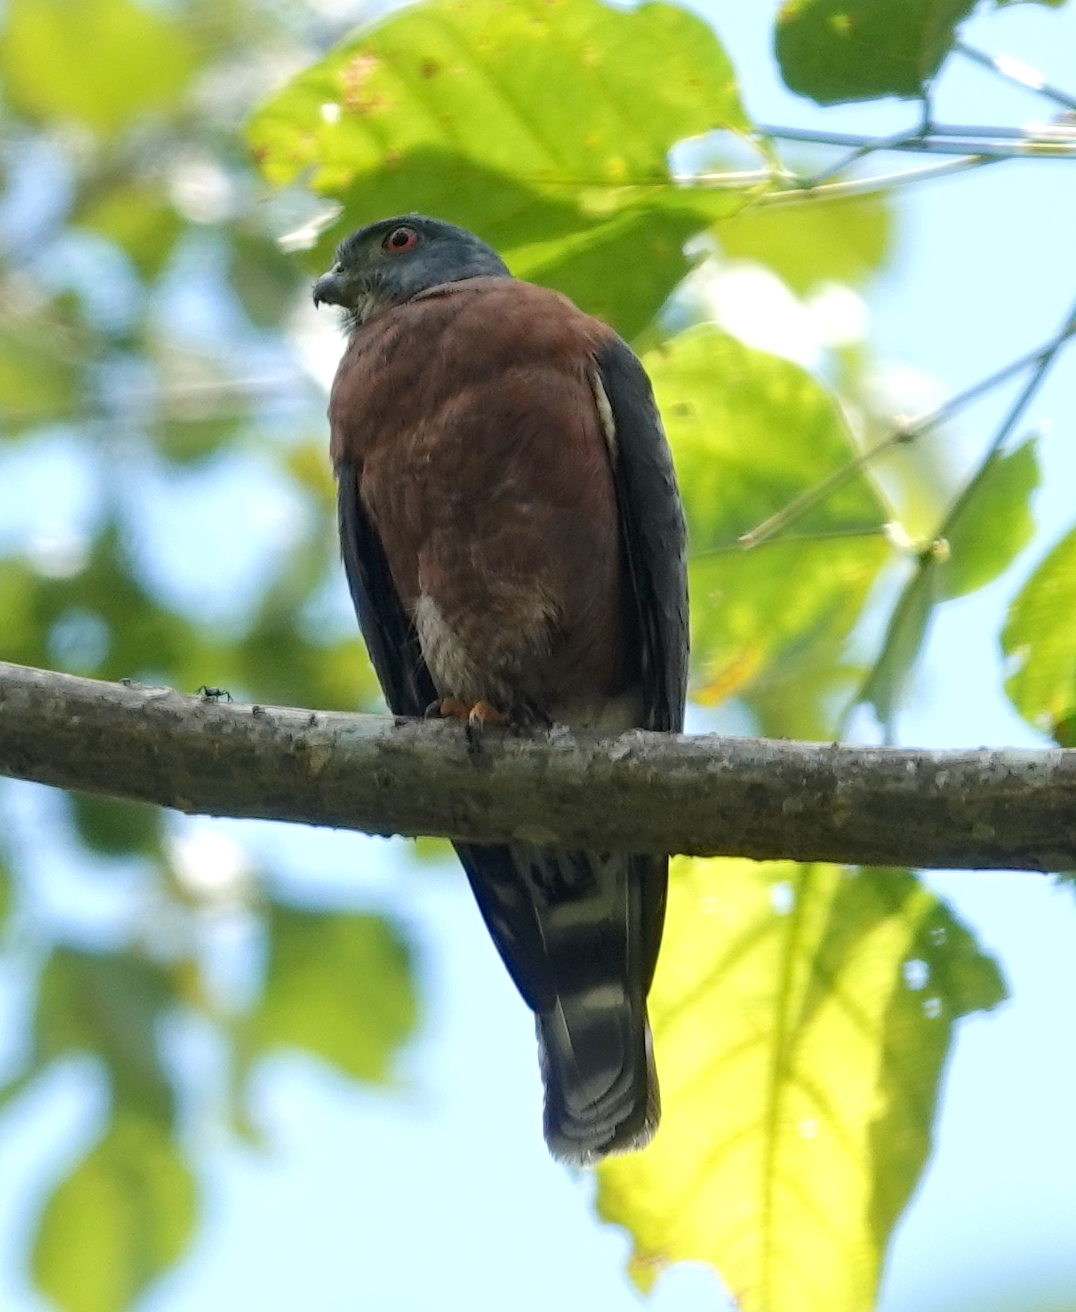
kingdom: Animalia
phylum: Chordata
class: Aves
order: Accipitriformes
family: Accipitridae
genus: Harpagus
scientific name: Harpagus bidentatus
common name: Double-toothed kite
